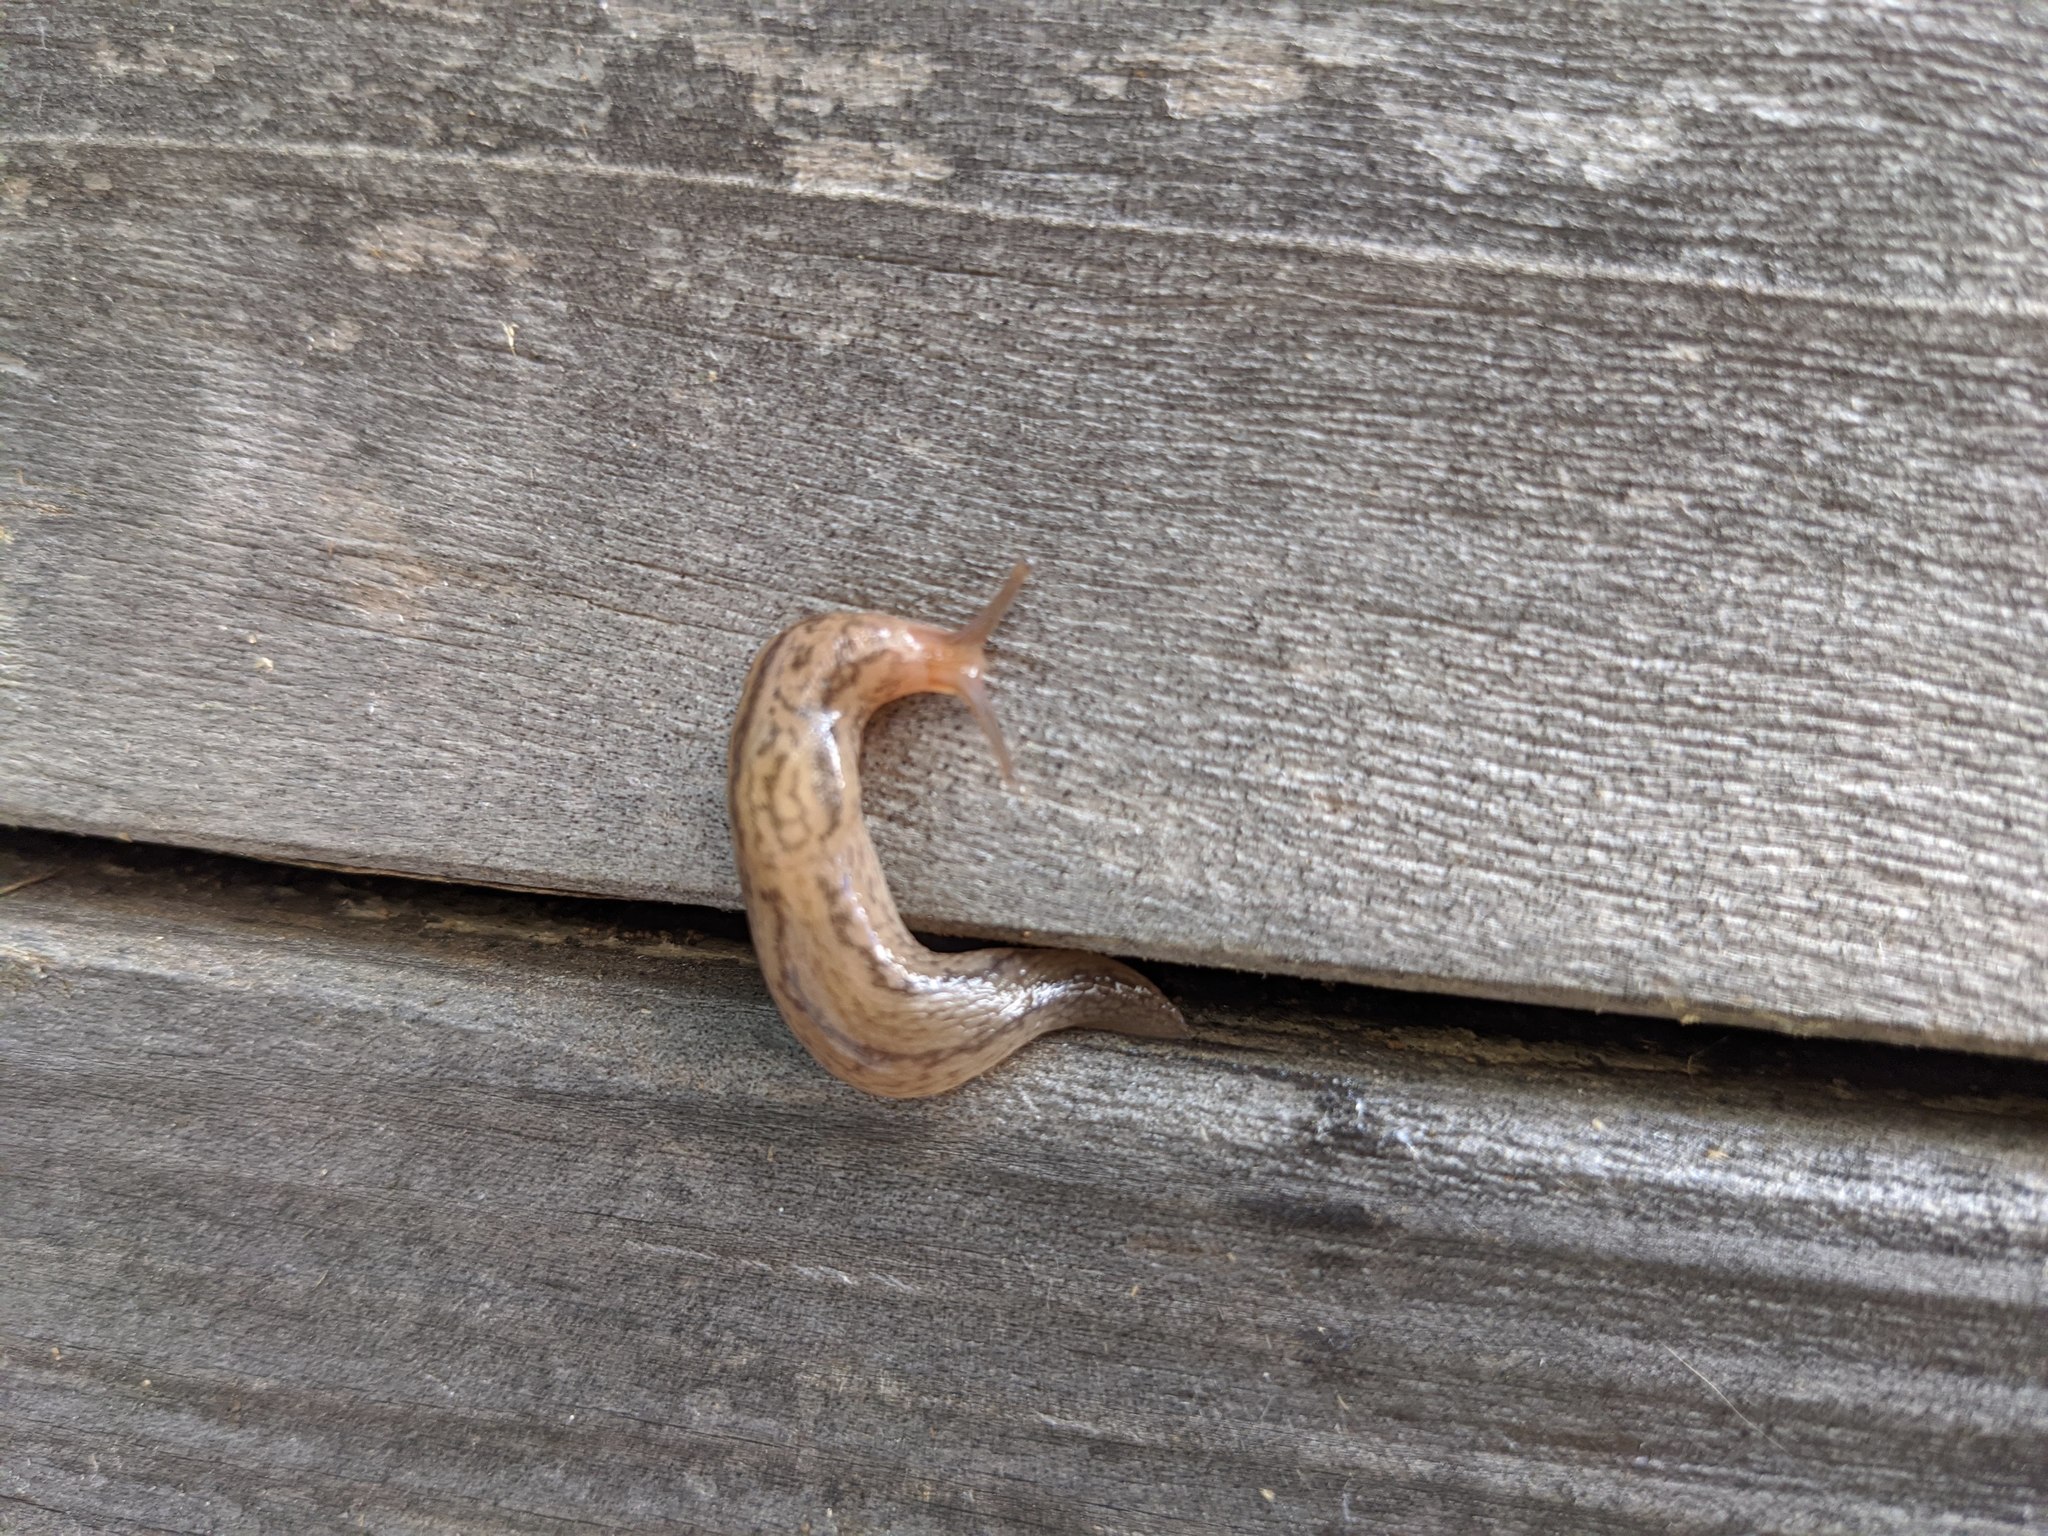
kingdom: Animalia
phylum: Mollusca
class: Gastropoda
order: Stylommatophora
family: Limacidae
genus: Ambigolimax
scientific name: Ambigolimax
